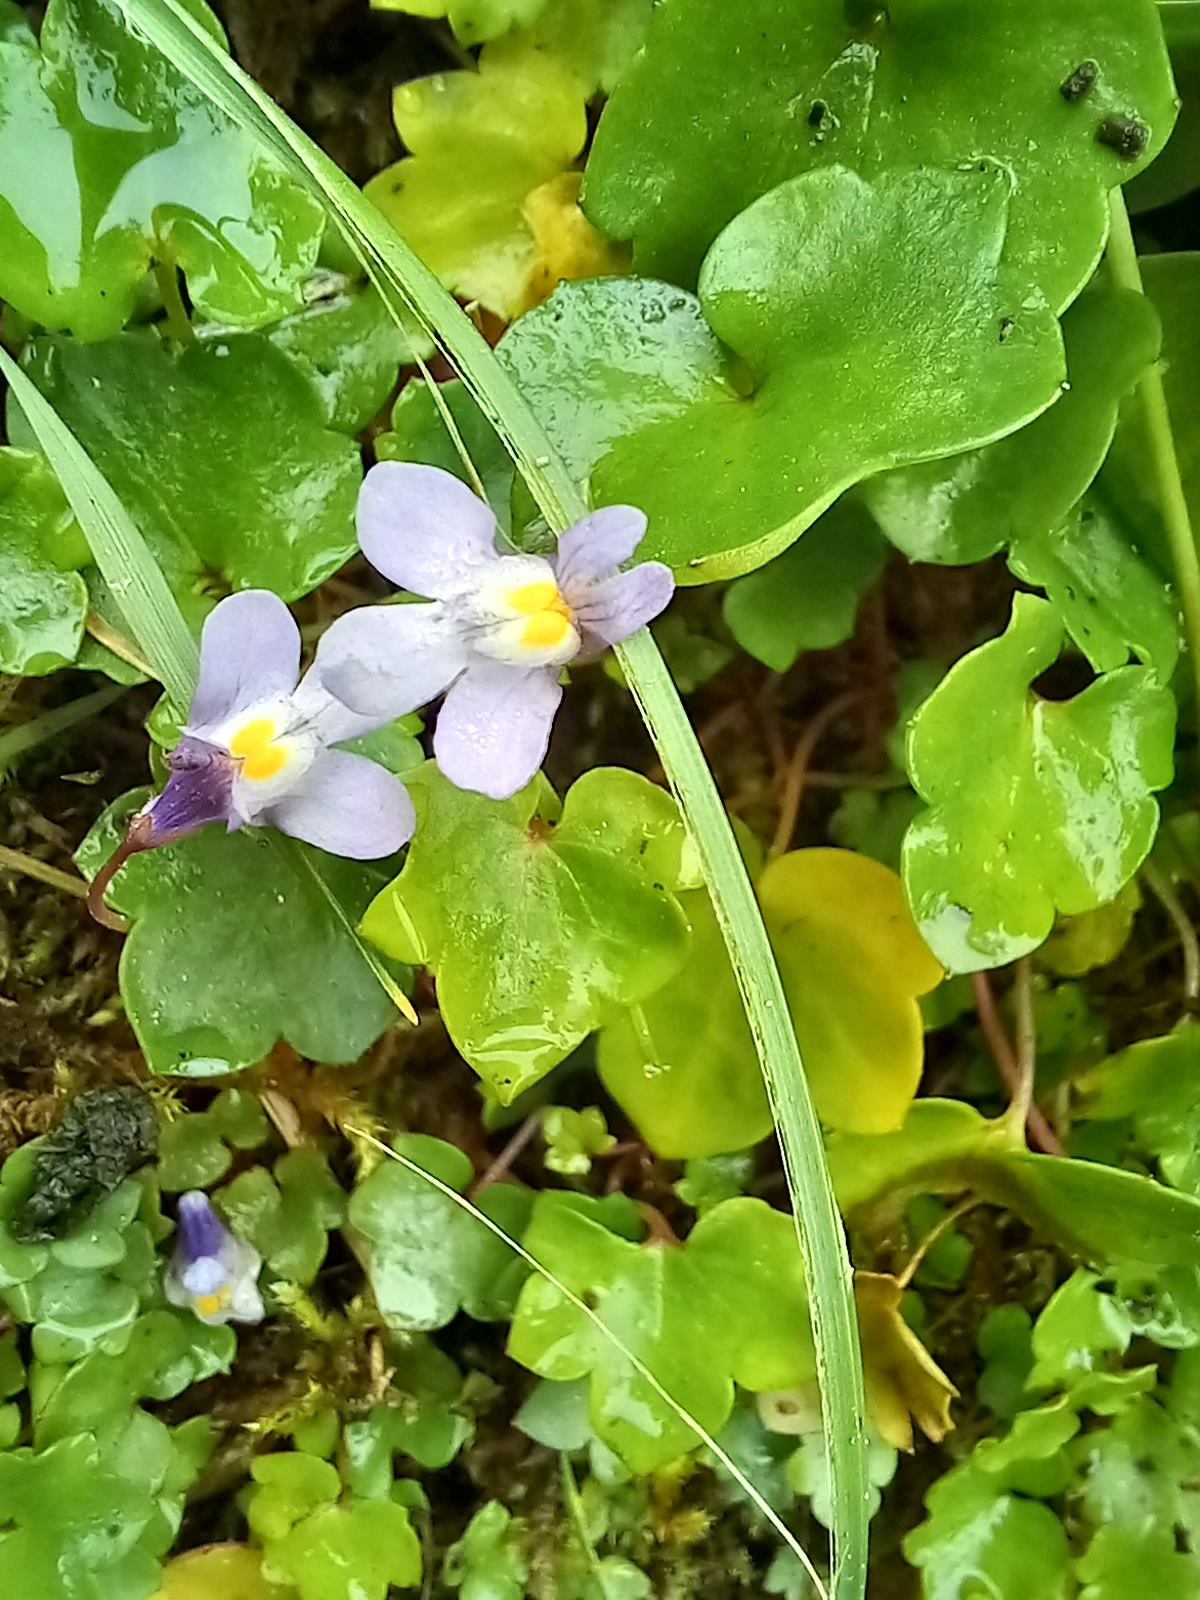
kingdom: Plantae
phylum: Tracheophyta
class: Magnoliopsida
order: Lamiales
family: Plantaginaceae
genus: Cymbalaria
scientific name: Cymbalaria muralis
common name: Ivy-leaved toadflax
